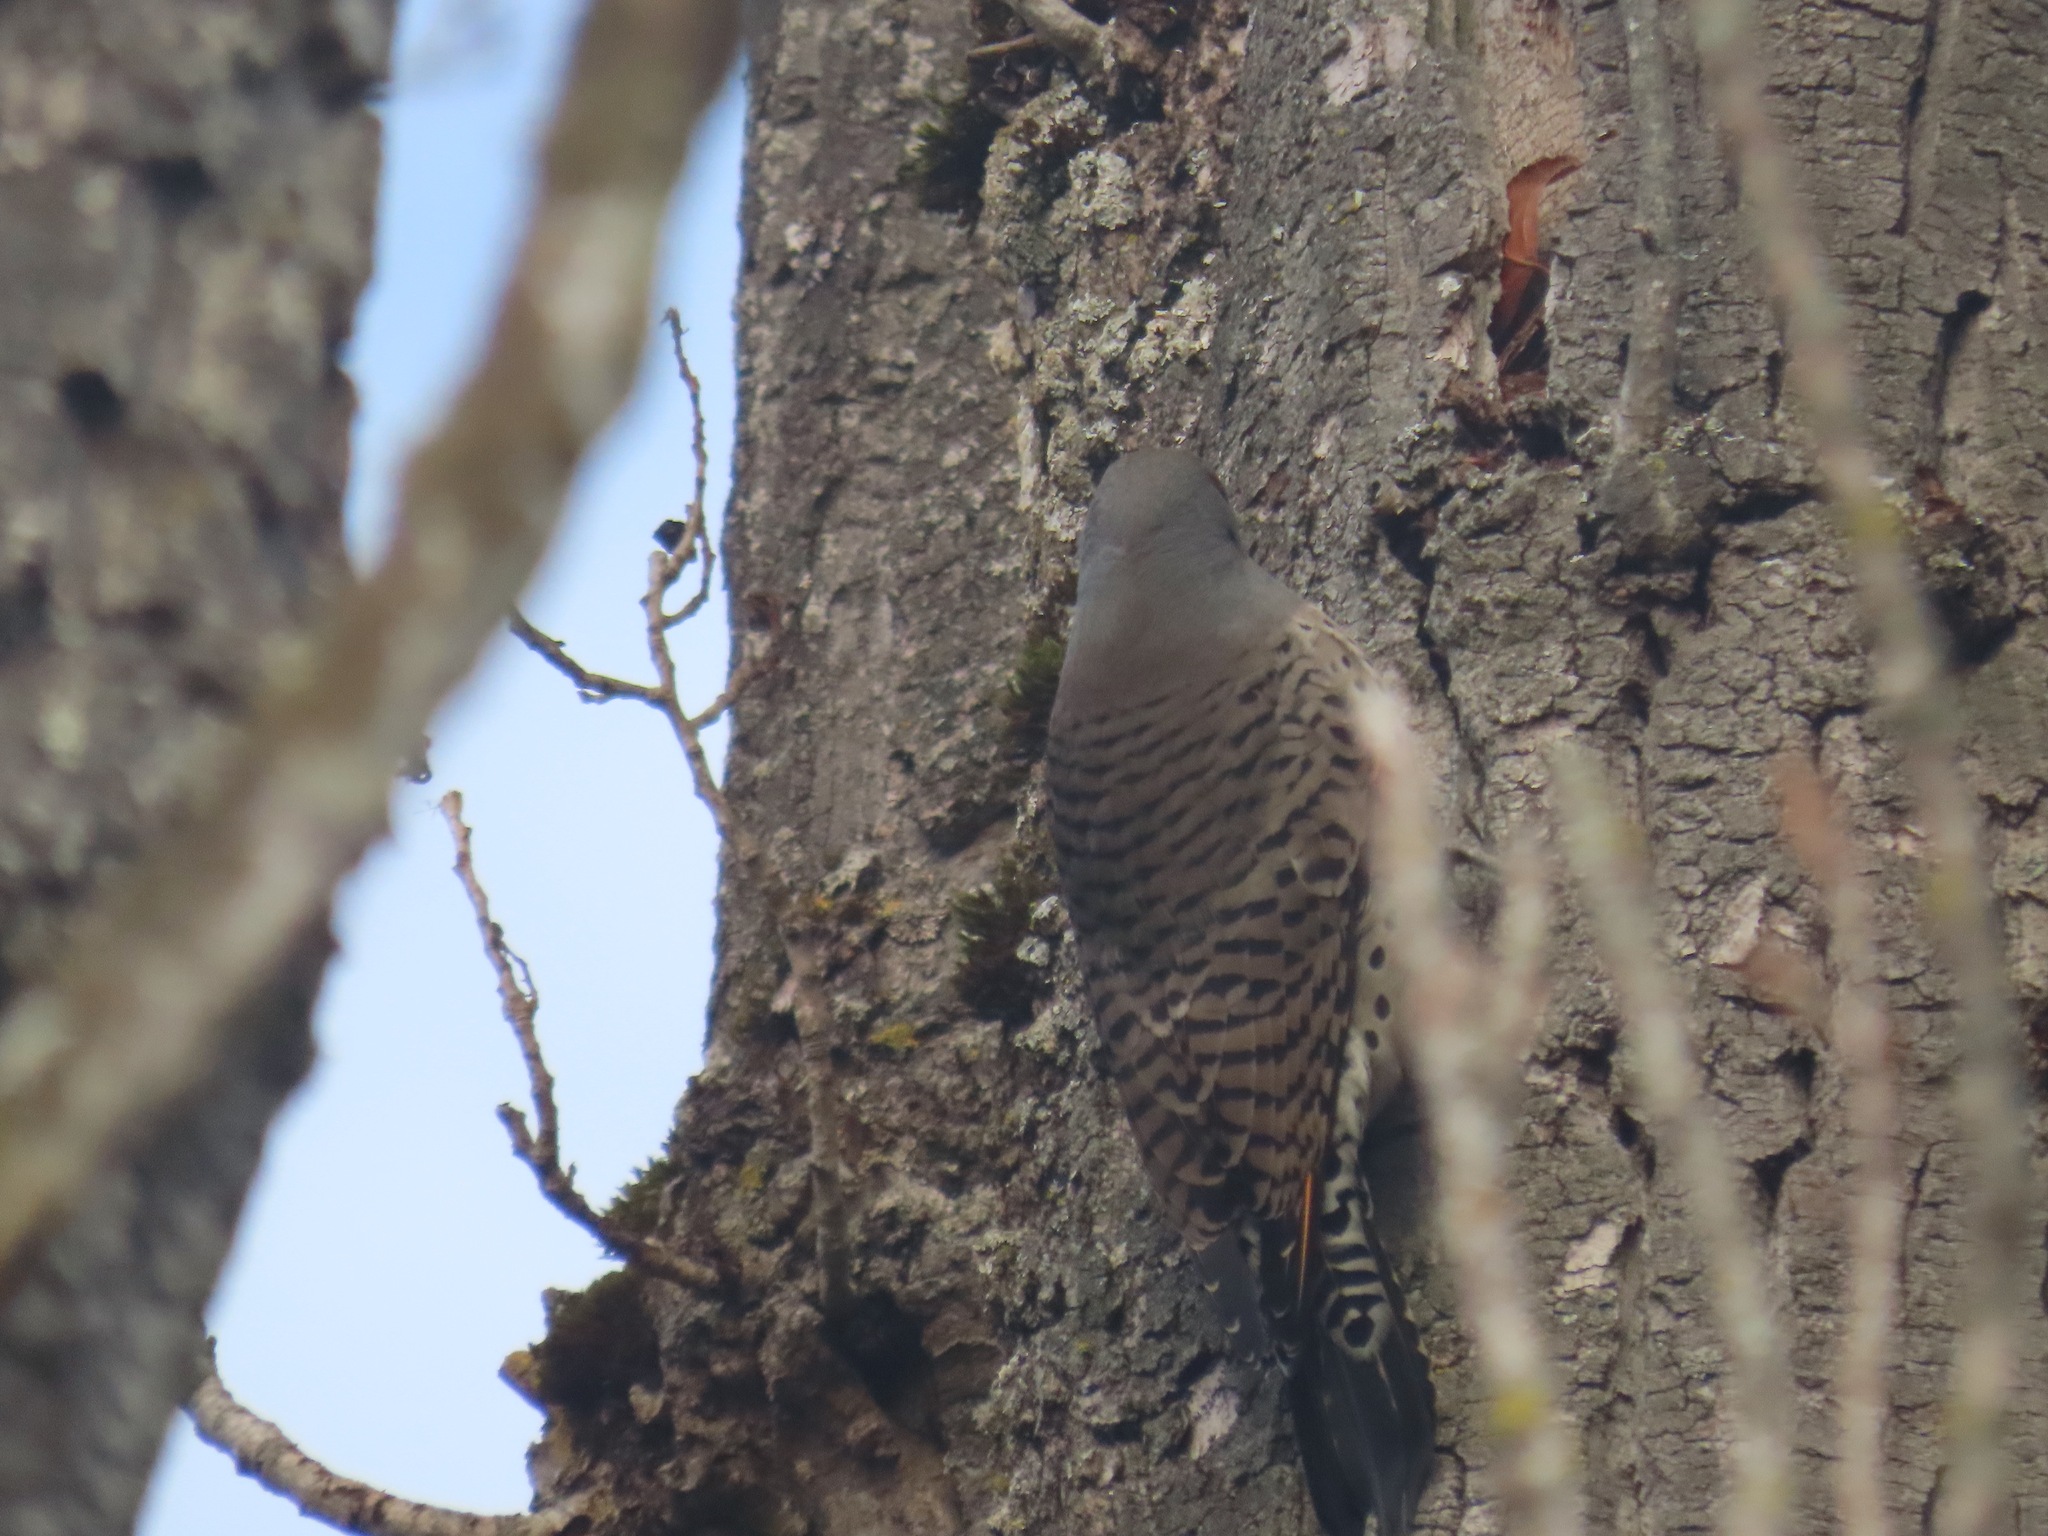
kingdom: Animalia
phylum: Chordata
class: Aves
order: Piciformes
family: Picidae
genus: Colaptes
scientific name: Colaptes auratus
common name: Northern flicker
